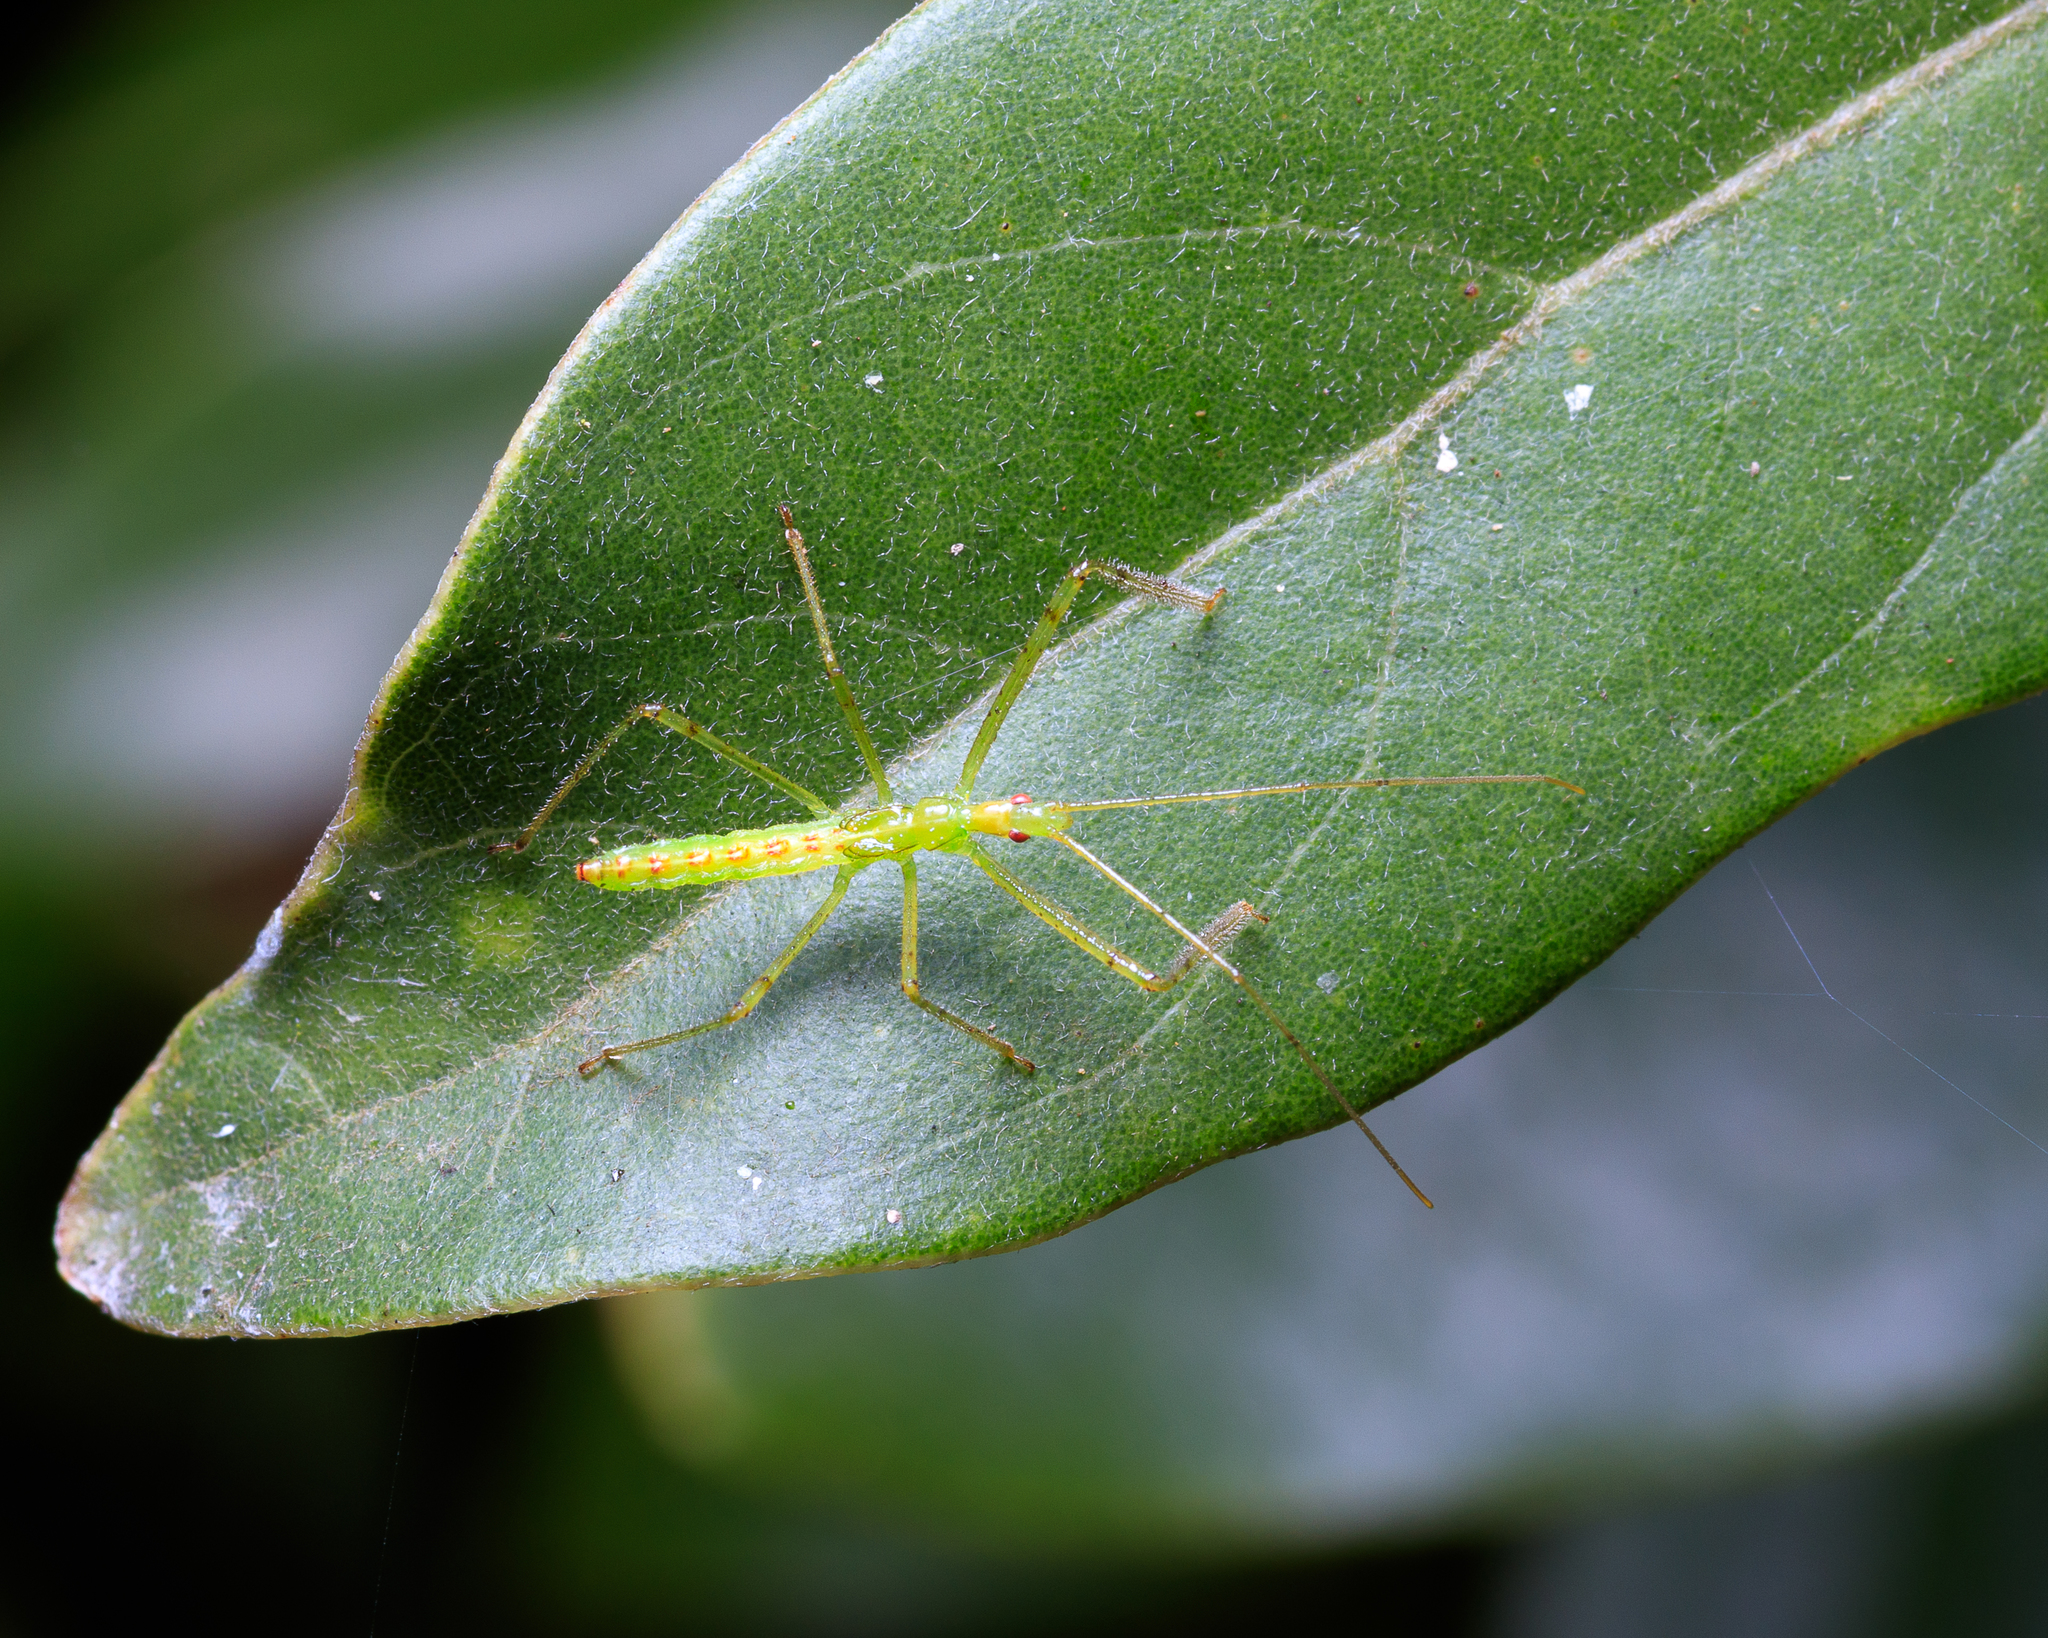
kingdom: Animalia
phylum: Arthropoda
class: Insecta
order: Hemiptera
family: Reduviidae
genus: Zelus
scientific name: Zelus luridus
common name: Pale green assassin bug
